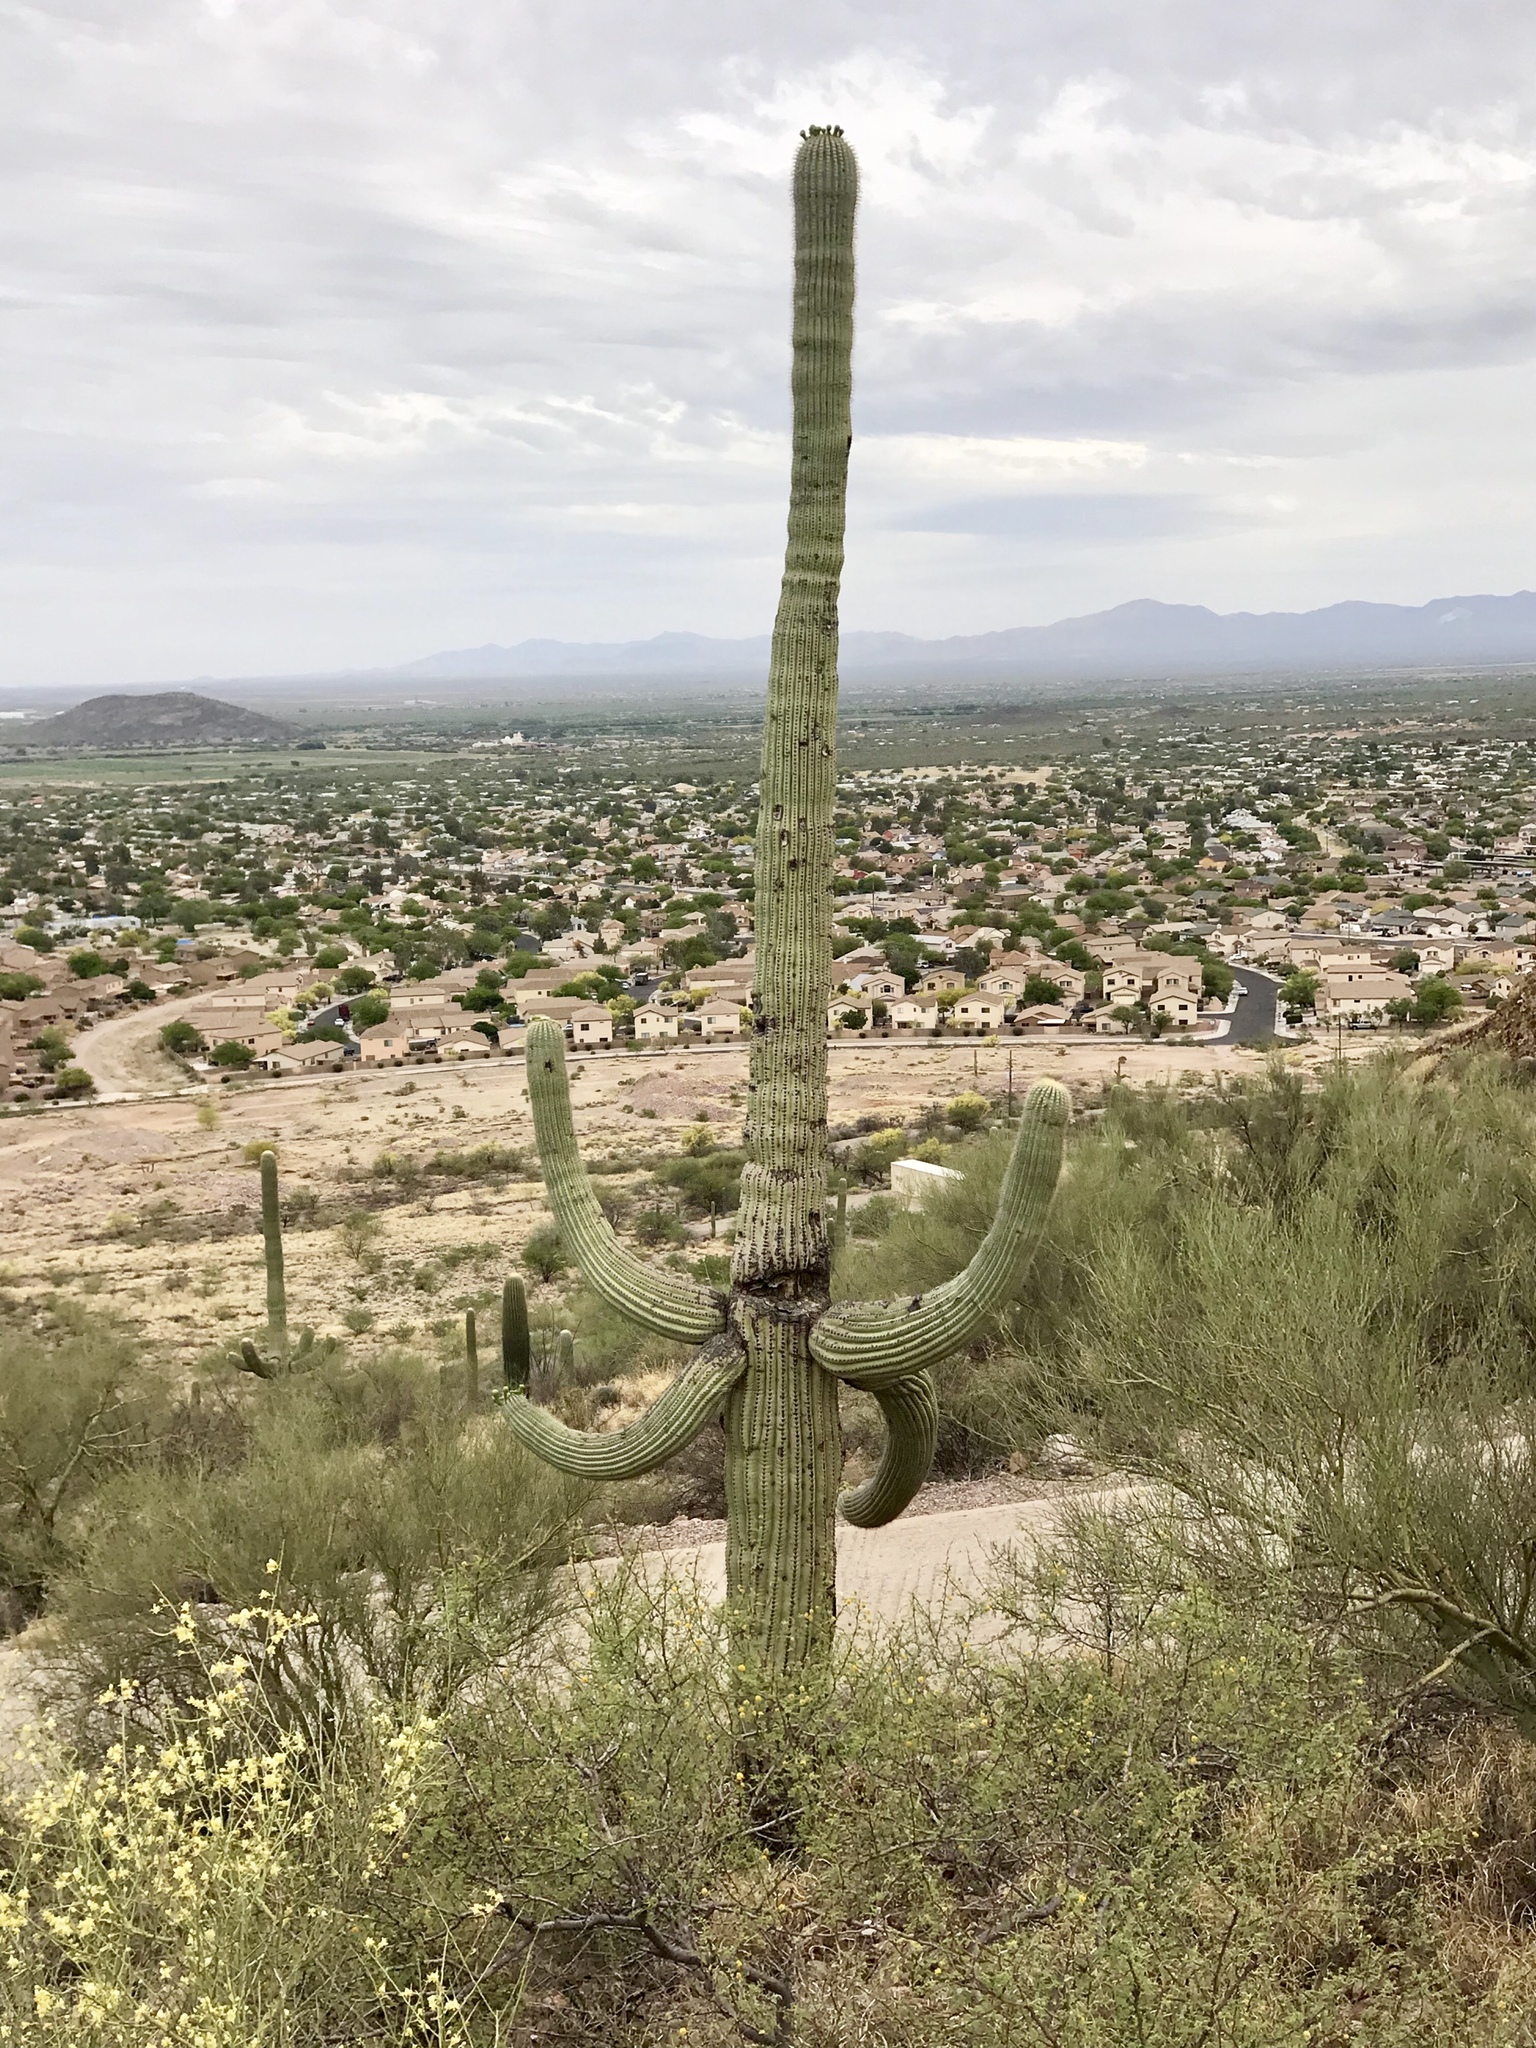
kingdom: Plantae
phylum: Tracheophyta
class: Magnoliopsida
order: Caryophyllales
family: Cactaceae
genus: Carnegiea
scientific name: Carnegiea gigantea
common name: Saguaro
